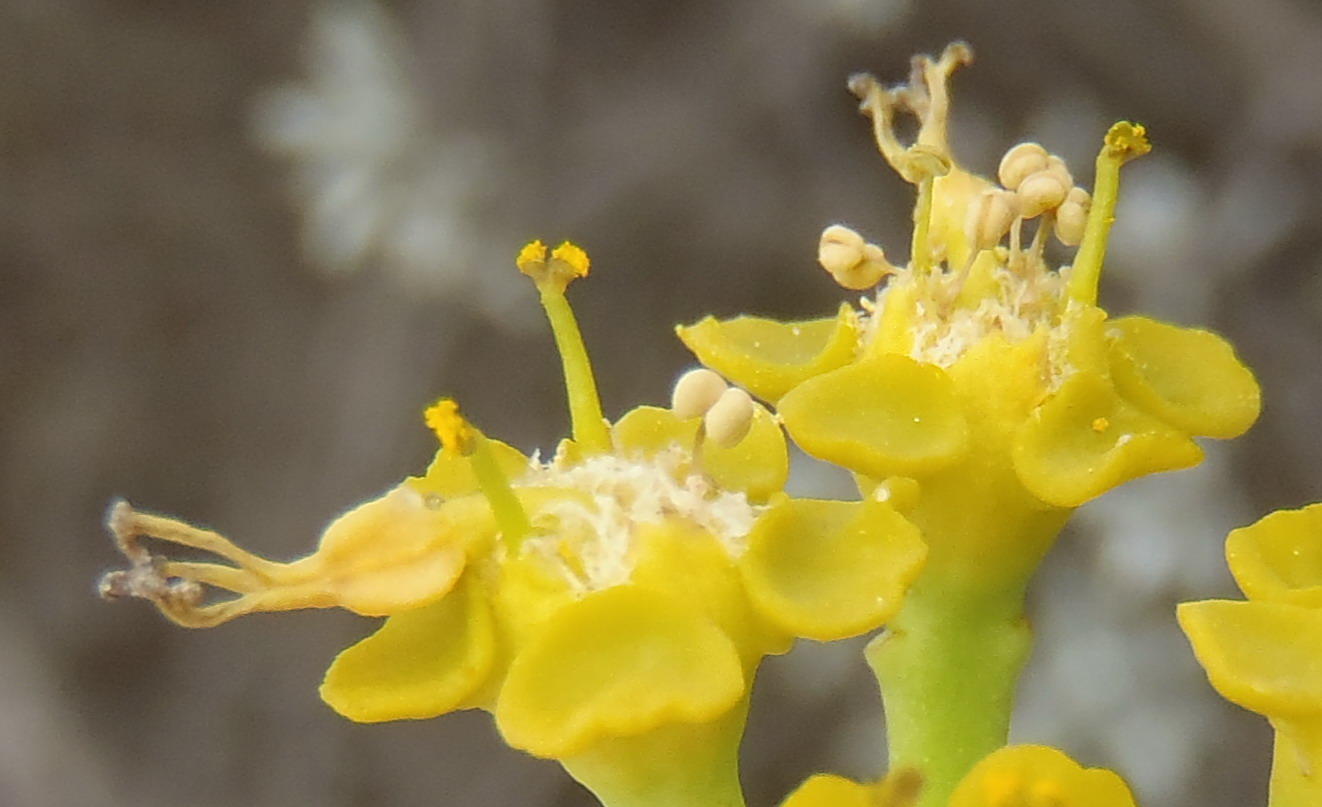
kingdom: Plantae
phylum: Tracheophyta
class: Magnoliopsida
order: Malpighiales
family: Euphorbiaceae
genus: Euphorbia
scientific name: Euphorbia mauritanica
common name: Jackal's-food
